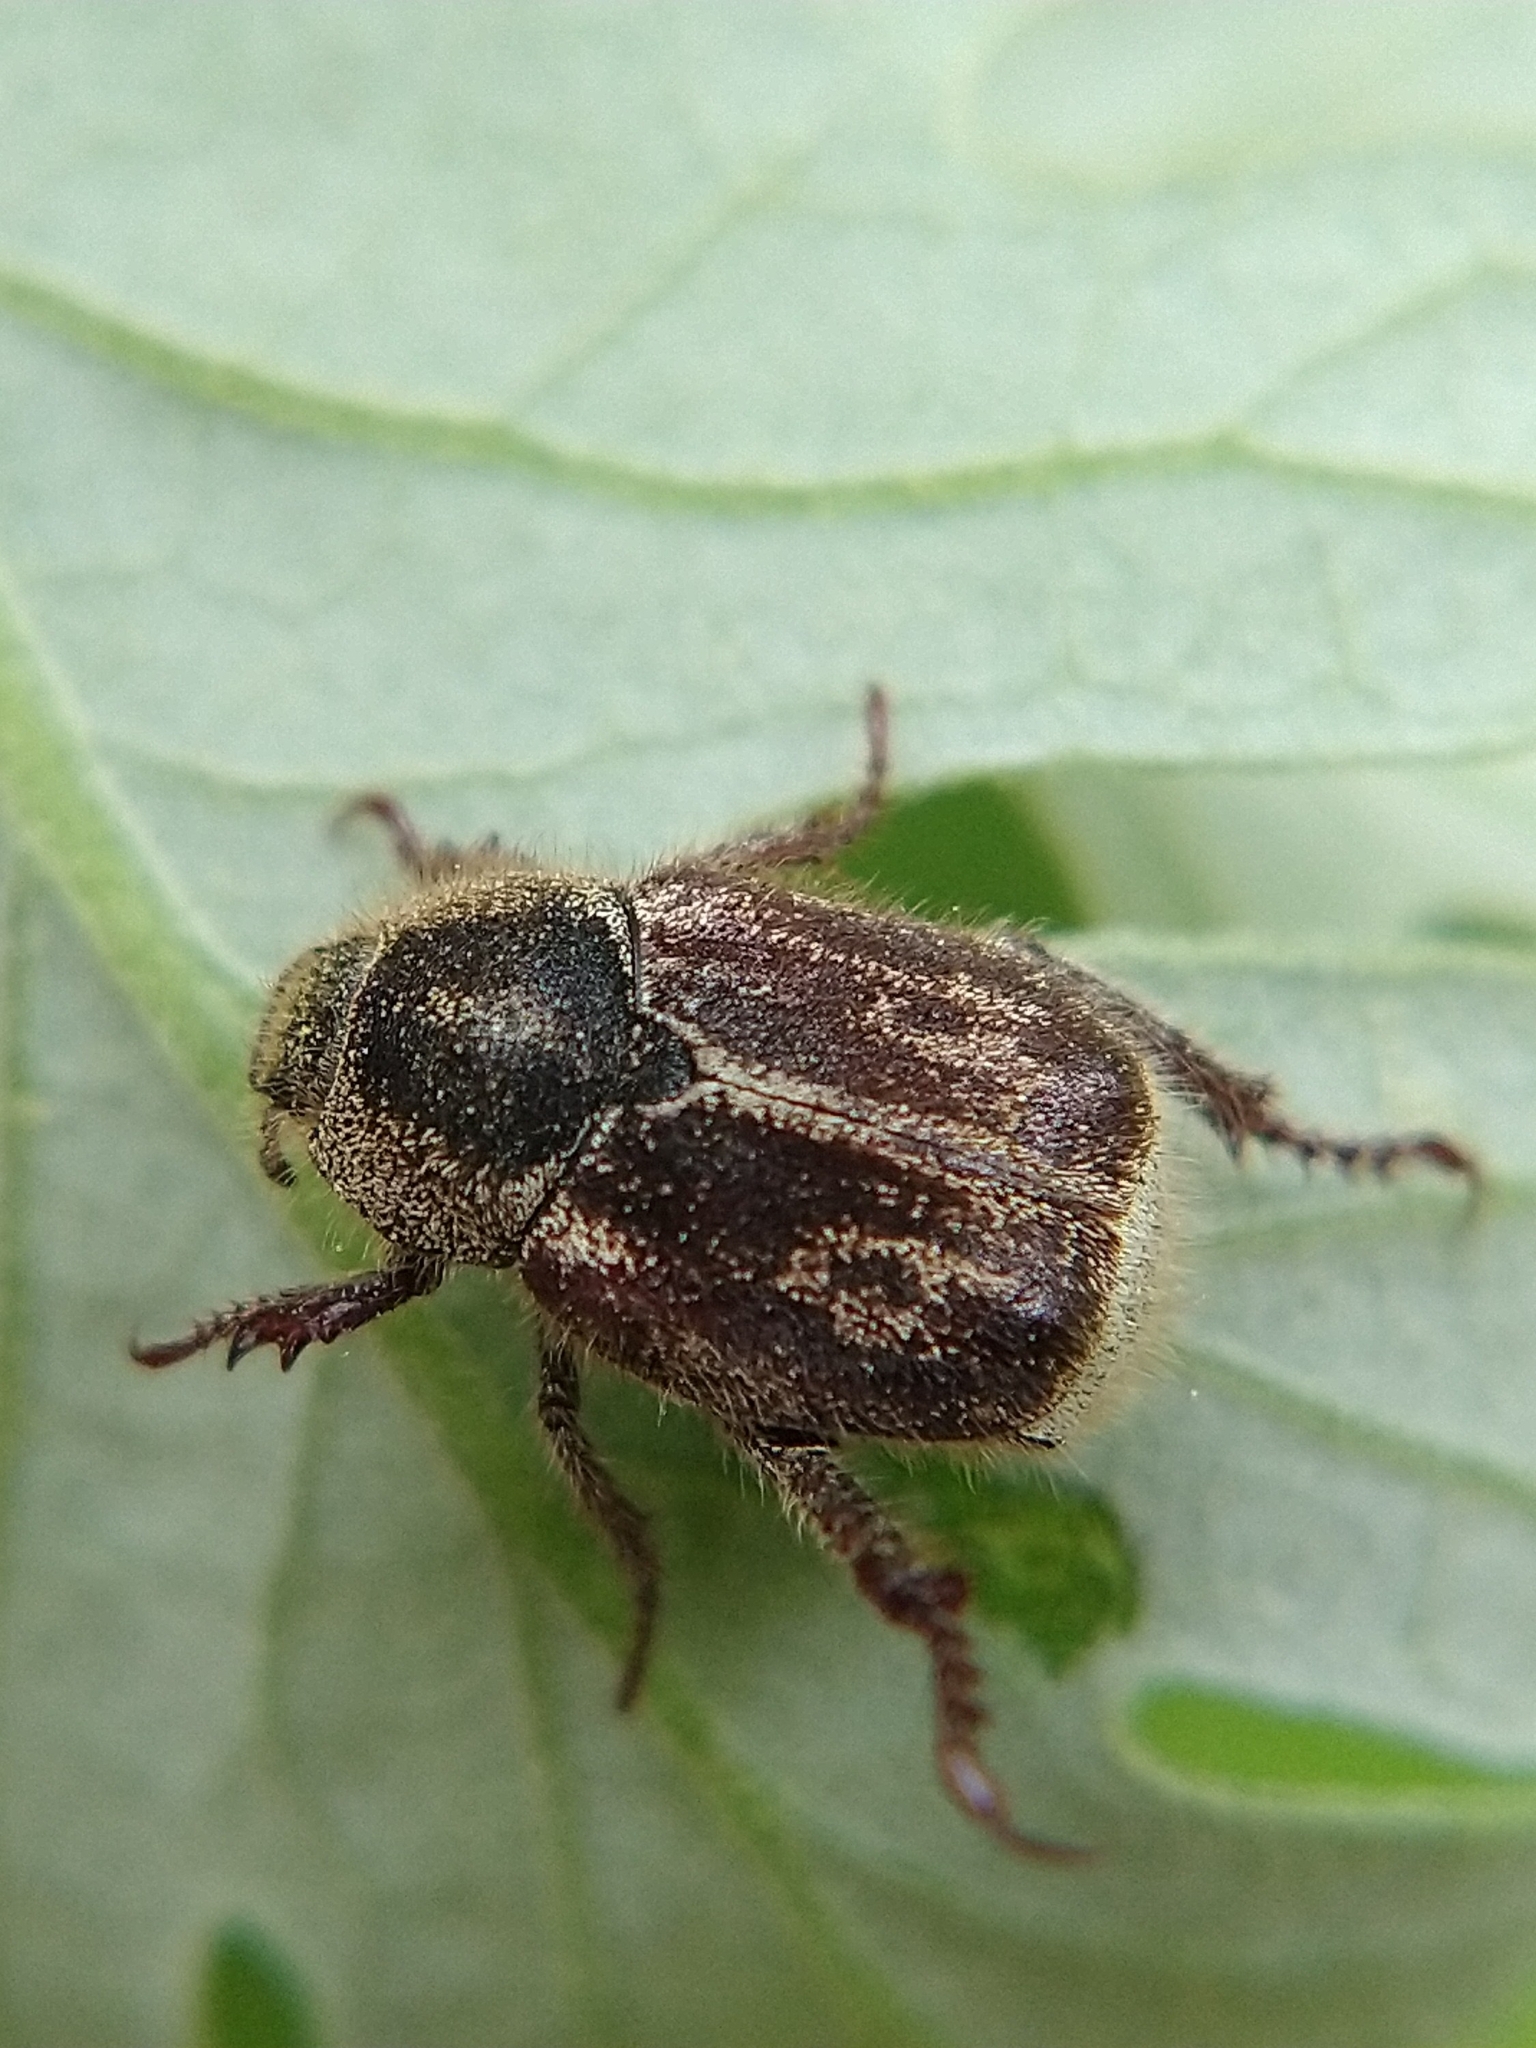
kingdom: Animalia
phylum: Arthropoda
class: Insecta
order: Coleoptera
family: Scarabaeidae
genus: Hoplia
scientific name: Hoplia
